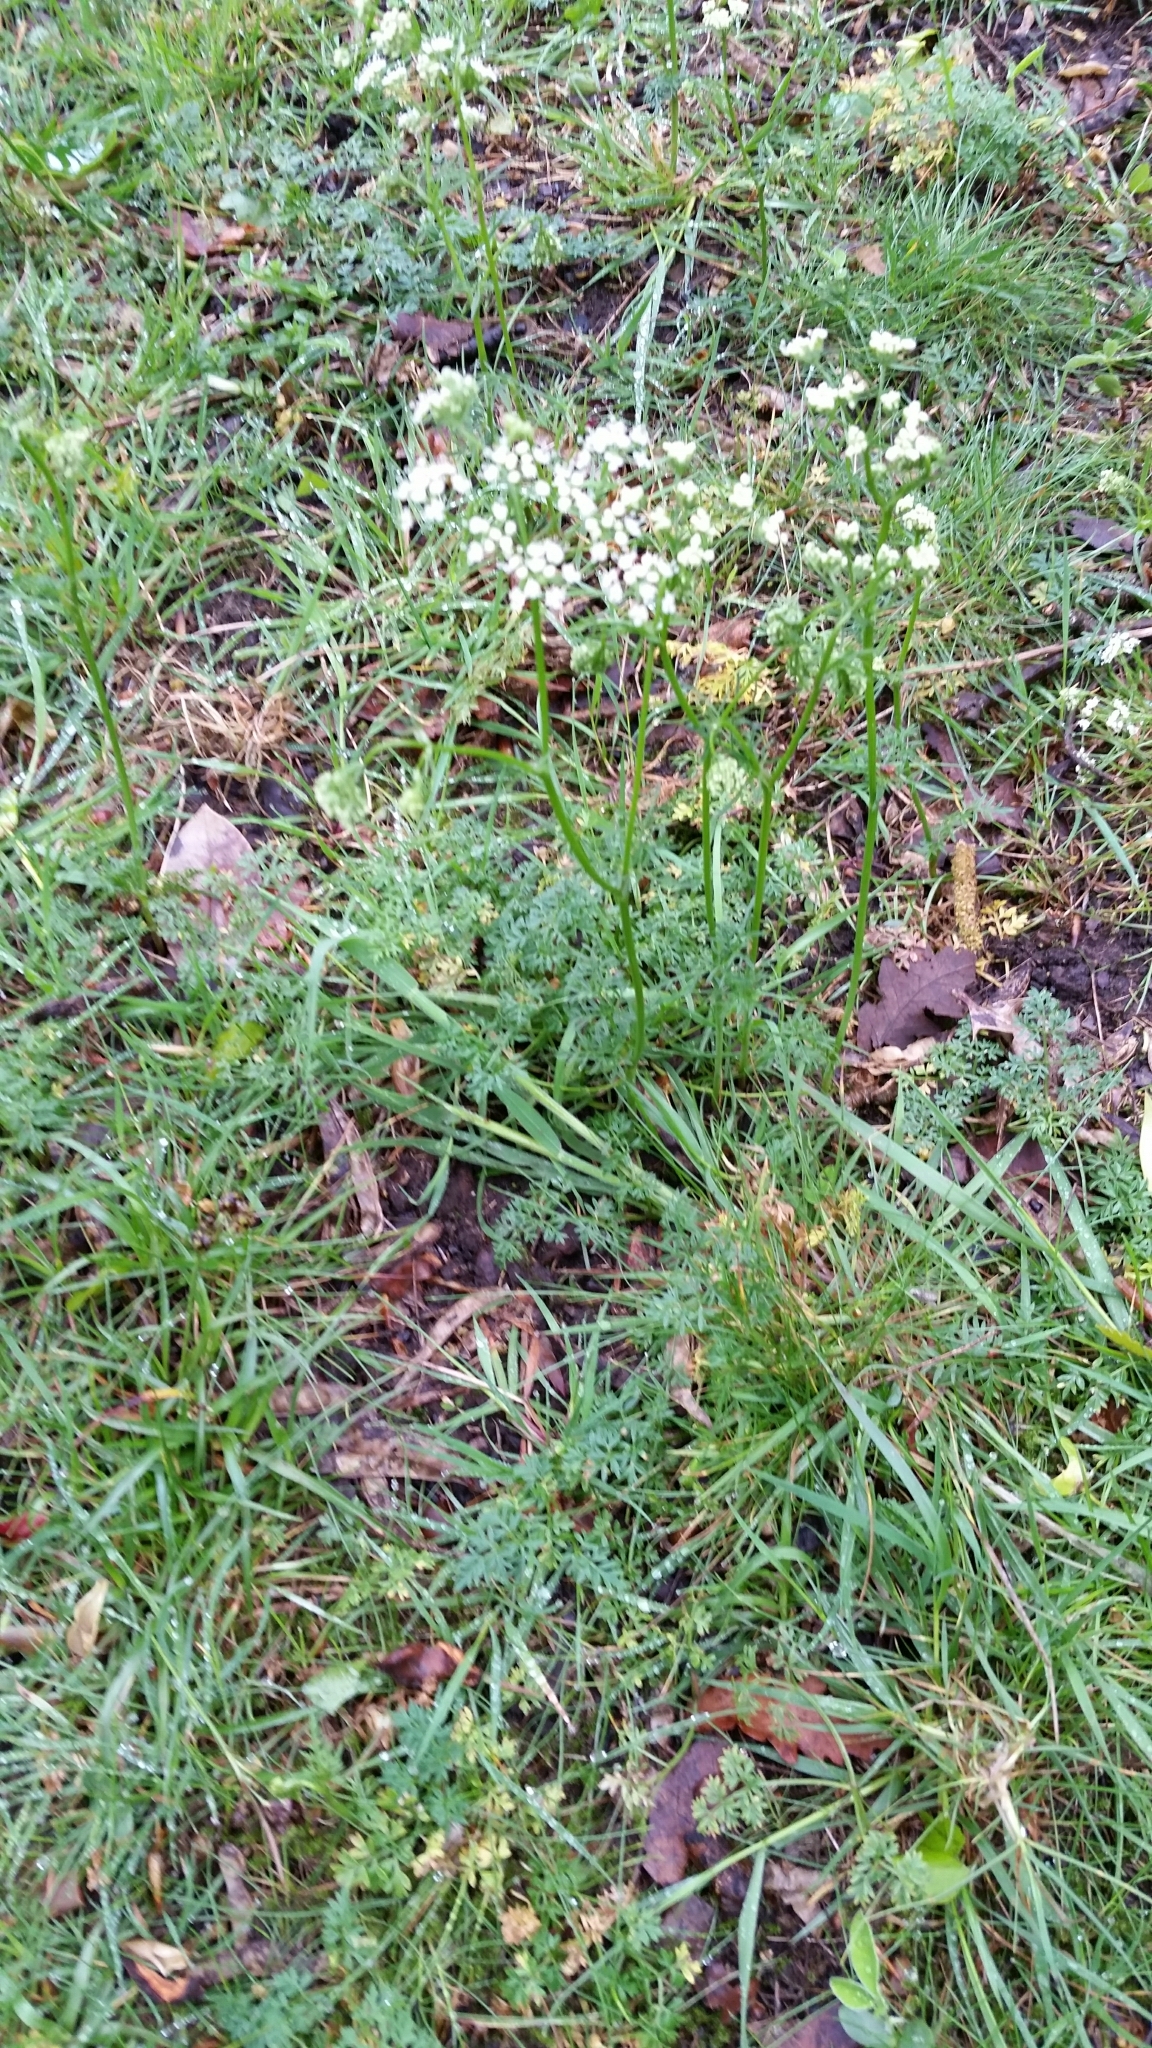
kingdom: Plantae
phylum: Tracheophyta
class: Magnoliopsida
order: Apiales
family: Apiaceae
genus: Conopodium
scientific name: Conopodium majus
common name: Pignut
